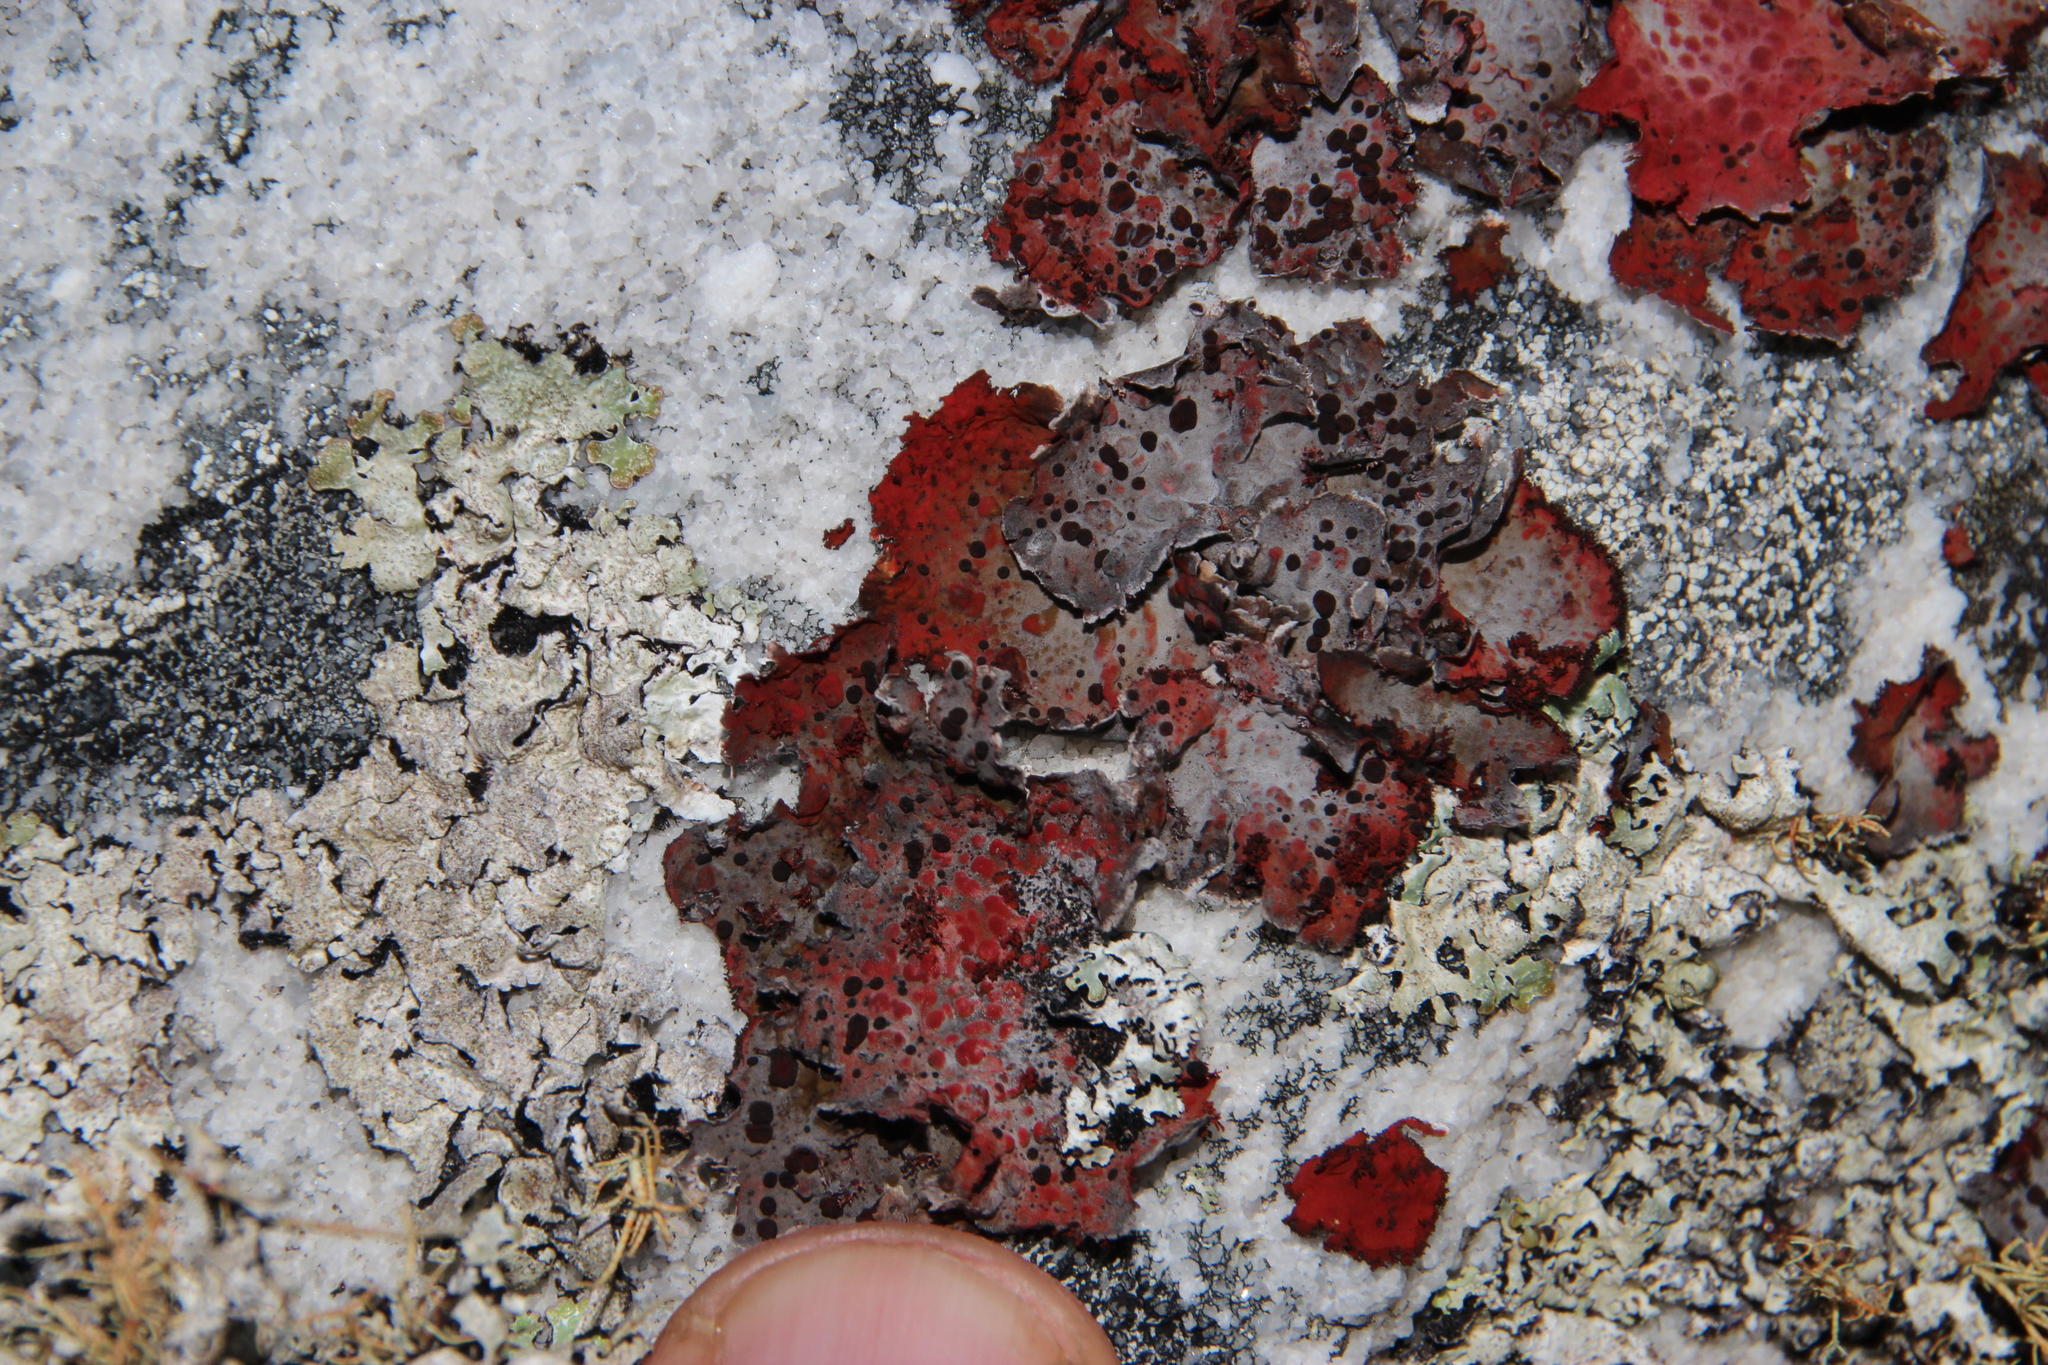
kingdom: Fungi
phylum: Ascomycota
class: Lecanoromycetes
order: Umbilicariales
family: Umbilicariaceae
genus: Lasallia
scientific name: Lasallia rubiginosa
